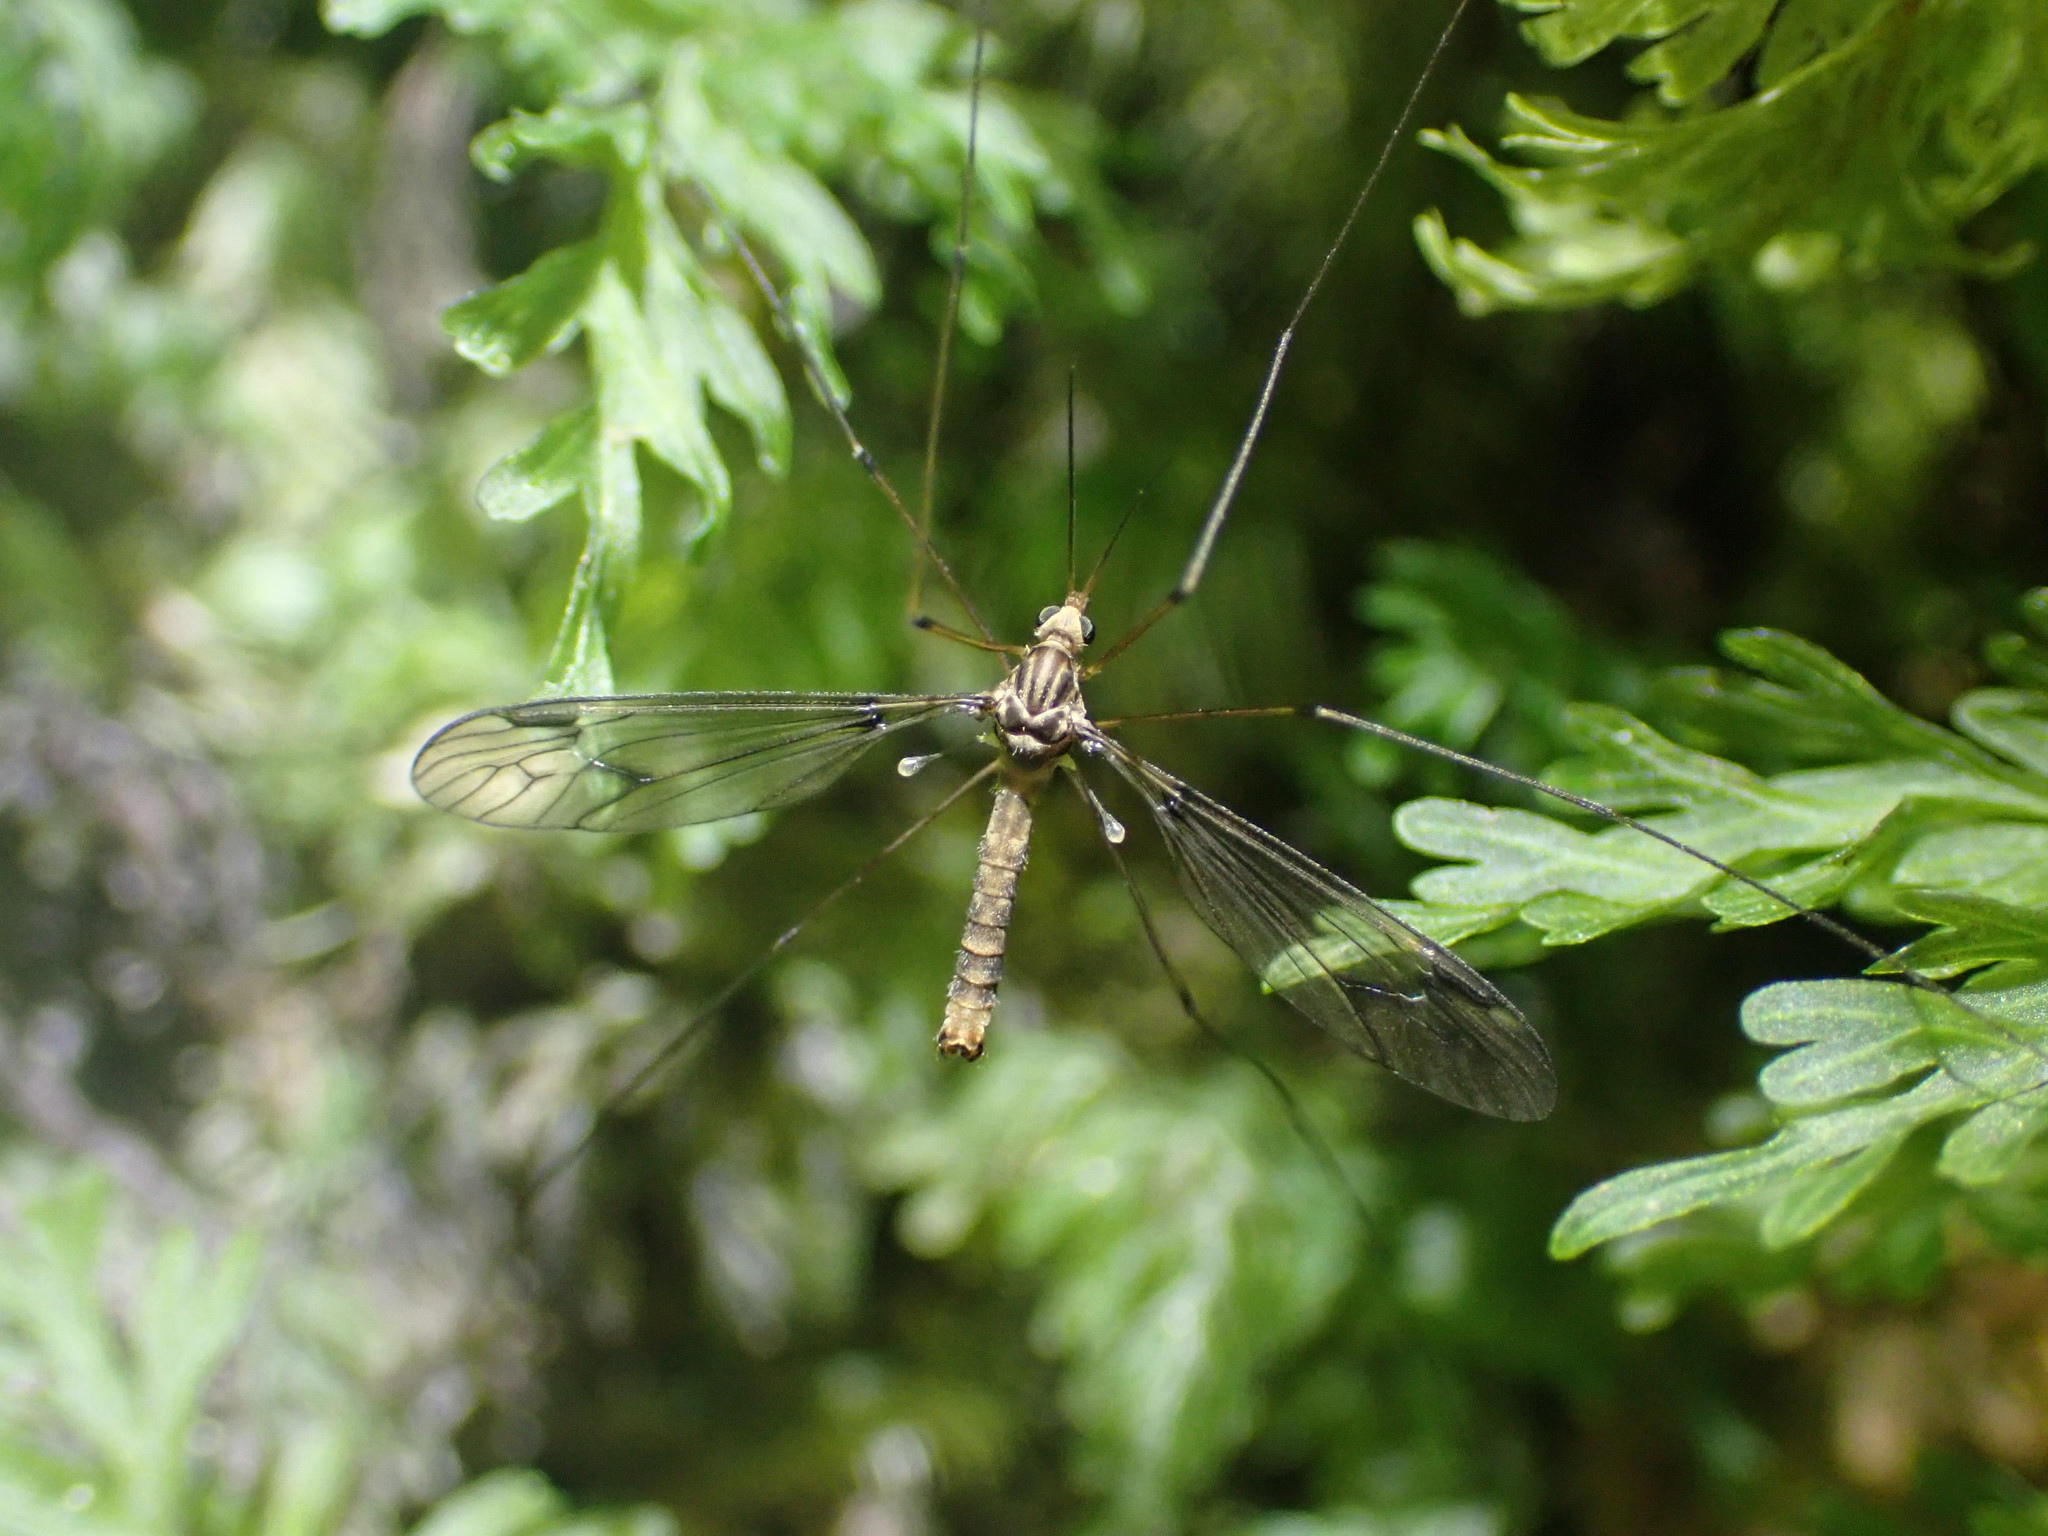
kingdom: Animalia
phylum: Arthropoda
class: Insecta
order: Diptera
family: Tipulidae
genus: Leptotarsus
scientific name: Leptotarsus cubitalis
